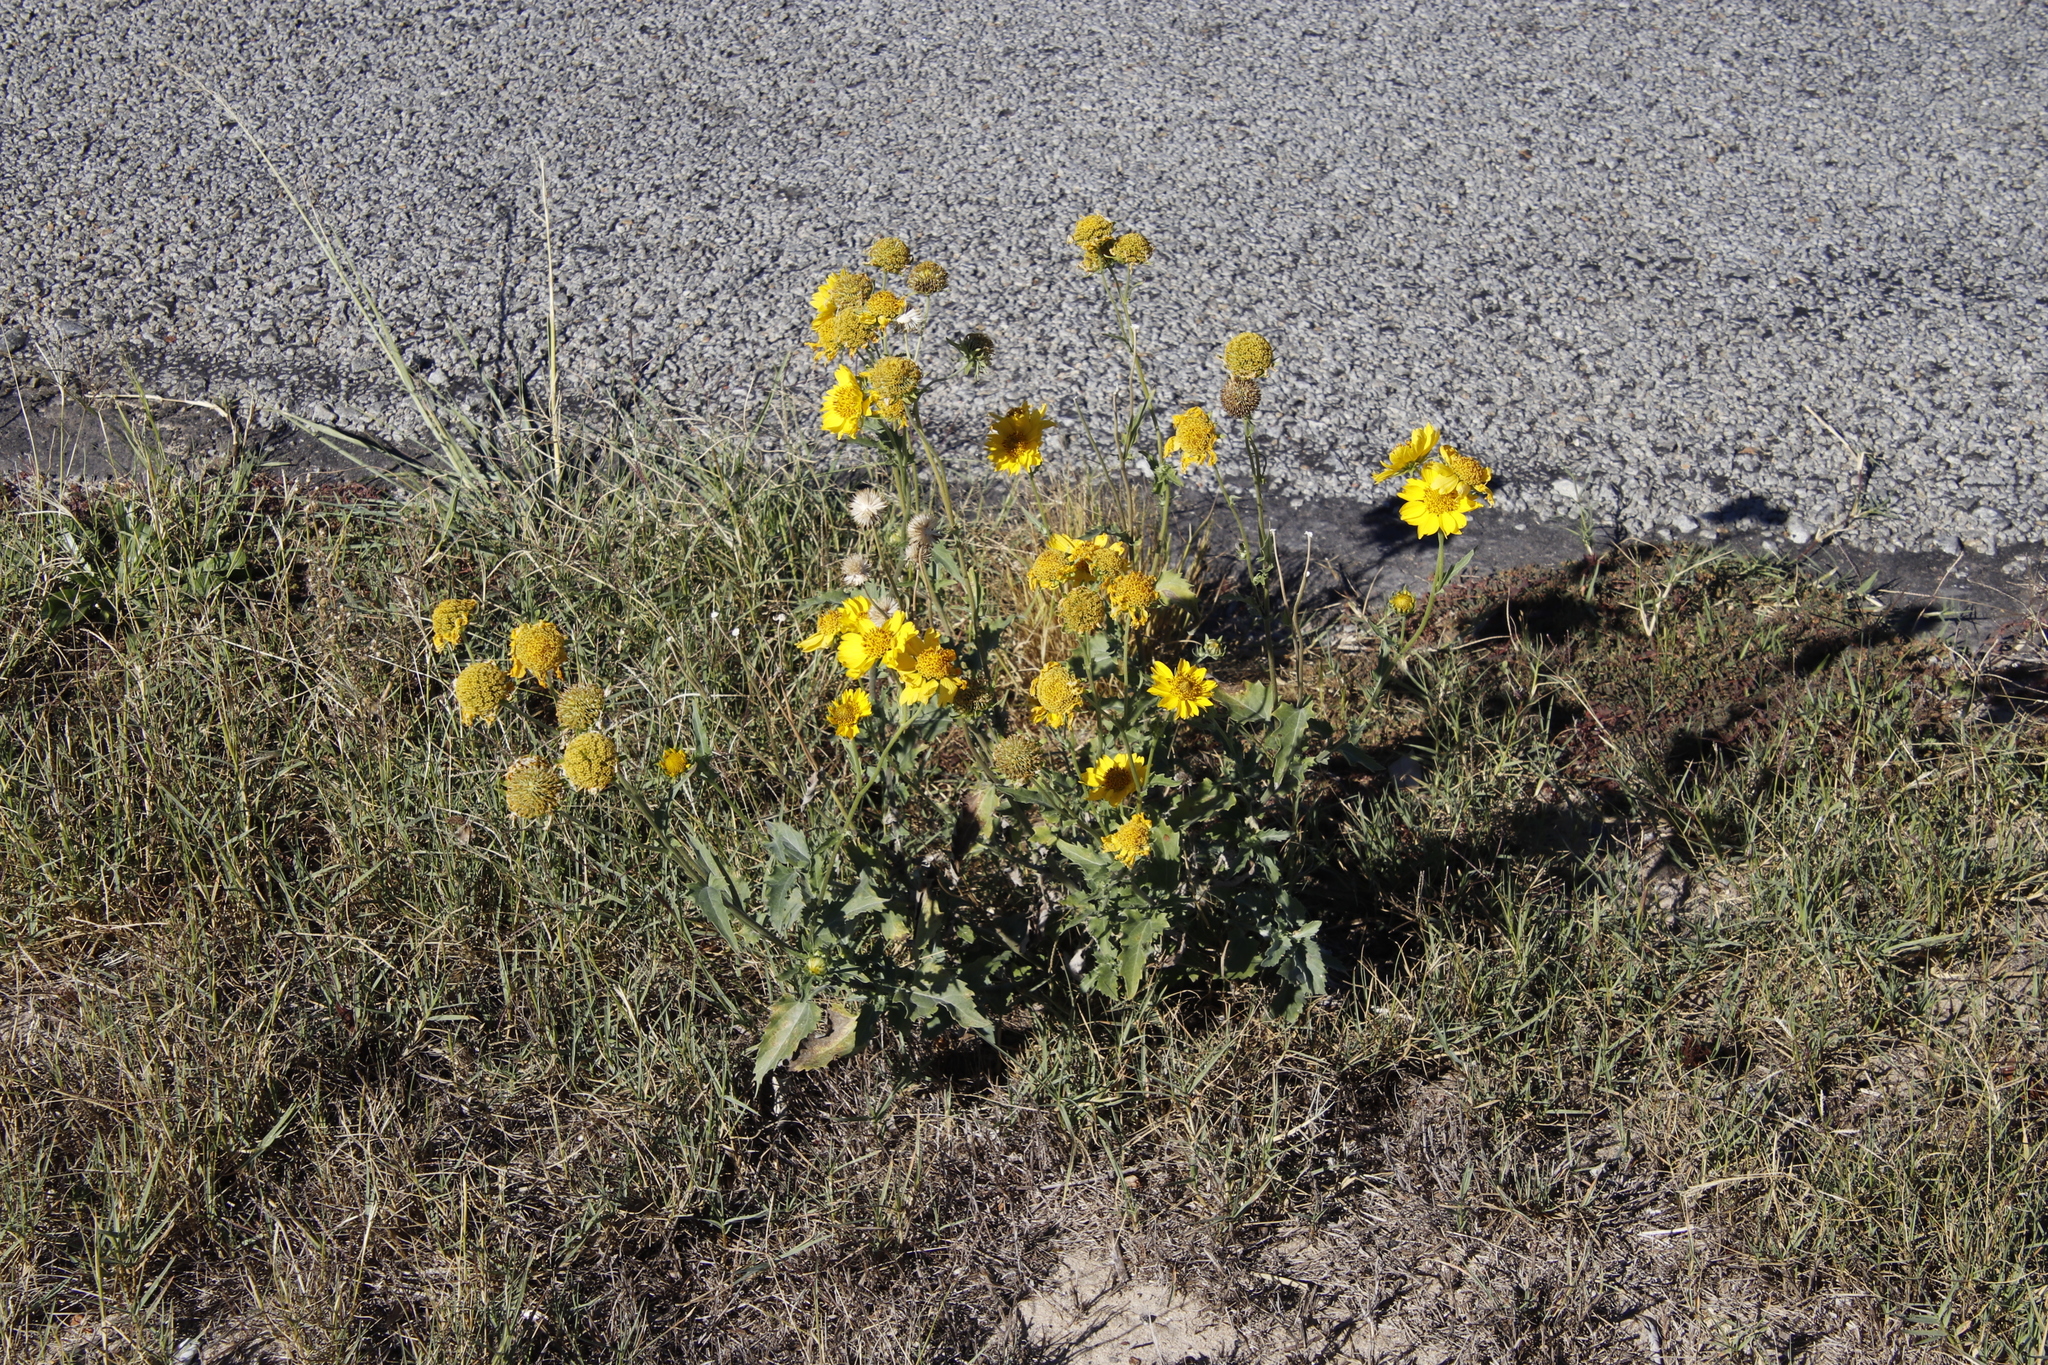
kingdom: Plantae
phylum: Tracheophyta
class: Magnoliopsida
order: Asterales
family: Asteraceae
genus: Verbesina
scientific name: Verbesina encelioides
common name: Golden crownbeard
